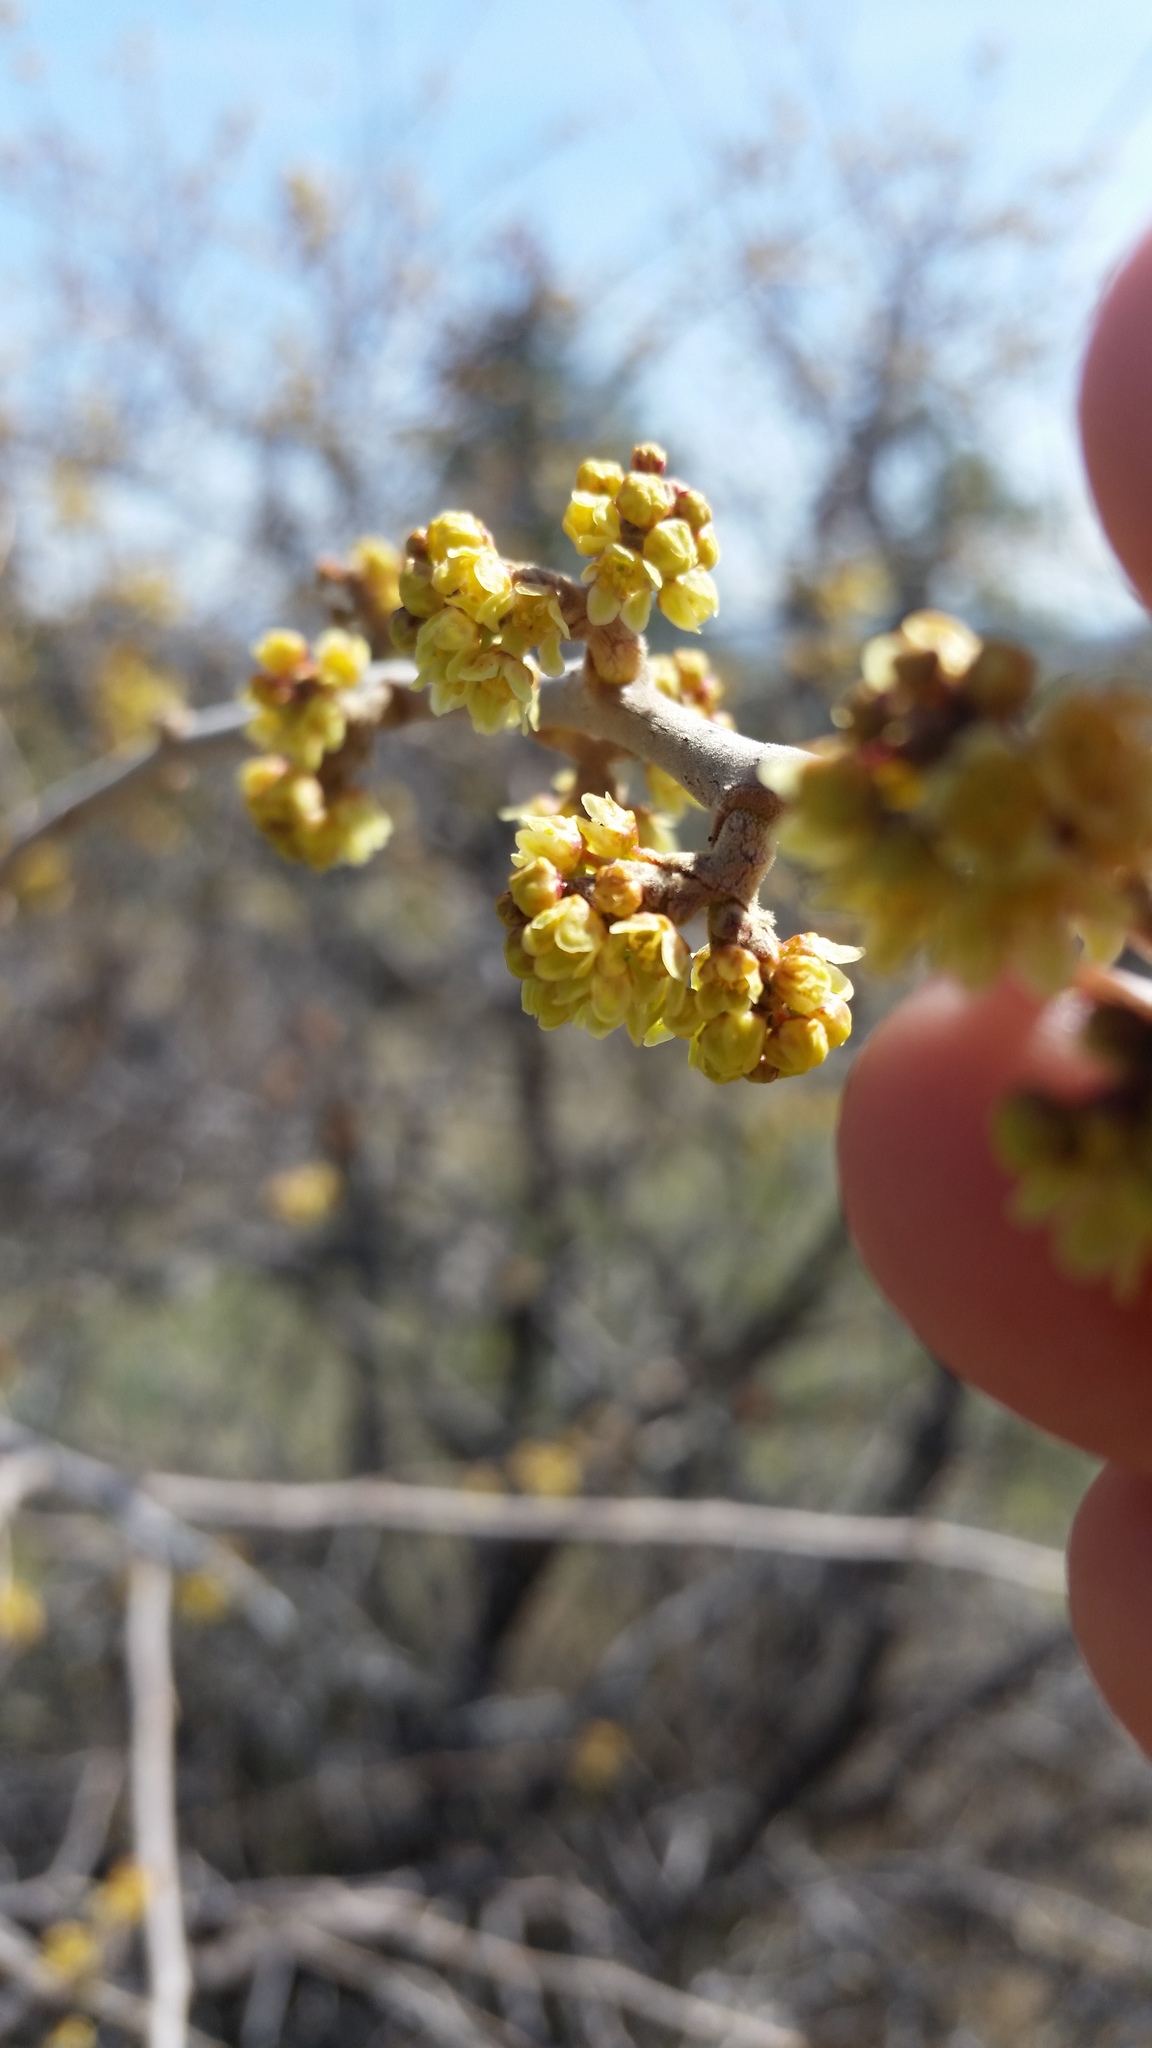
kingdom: Plantae
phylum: Tracheophyta
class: Magnoliopsida
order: Sapindales
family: Anacardiaceae
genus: Rhus
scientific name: Rhus aromatica
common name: Aromatic sumac
